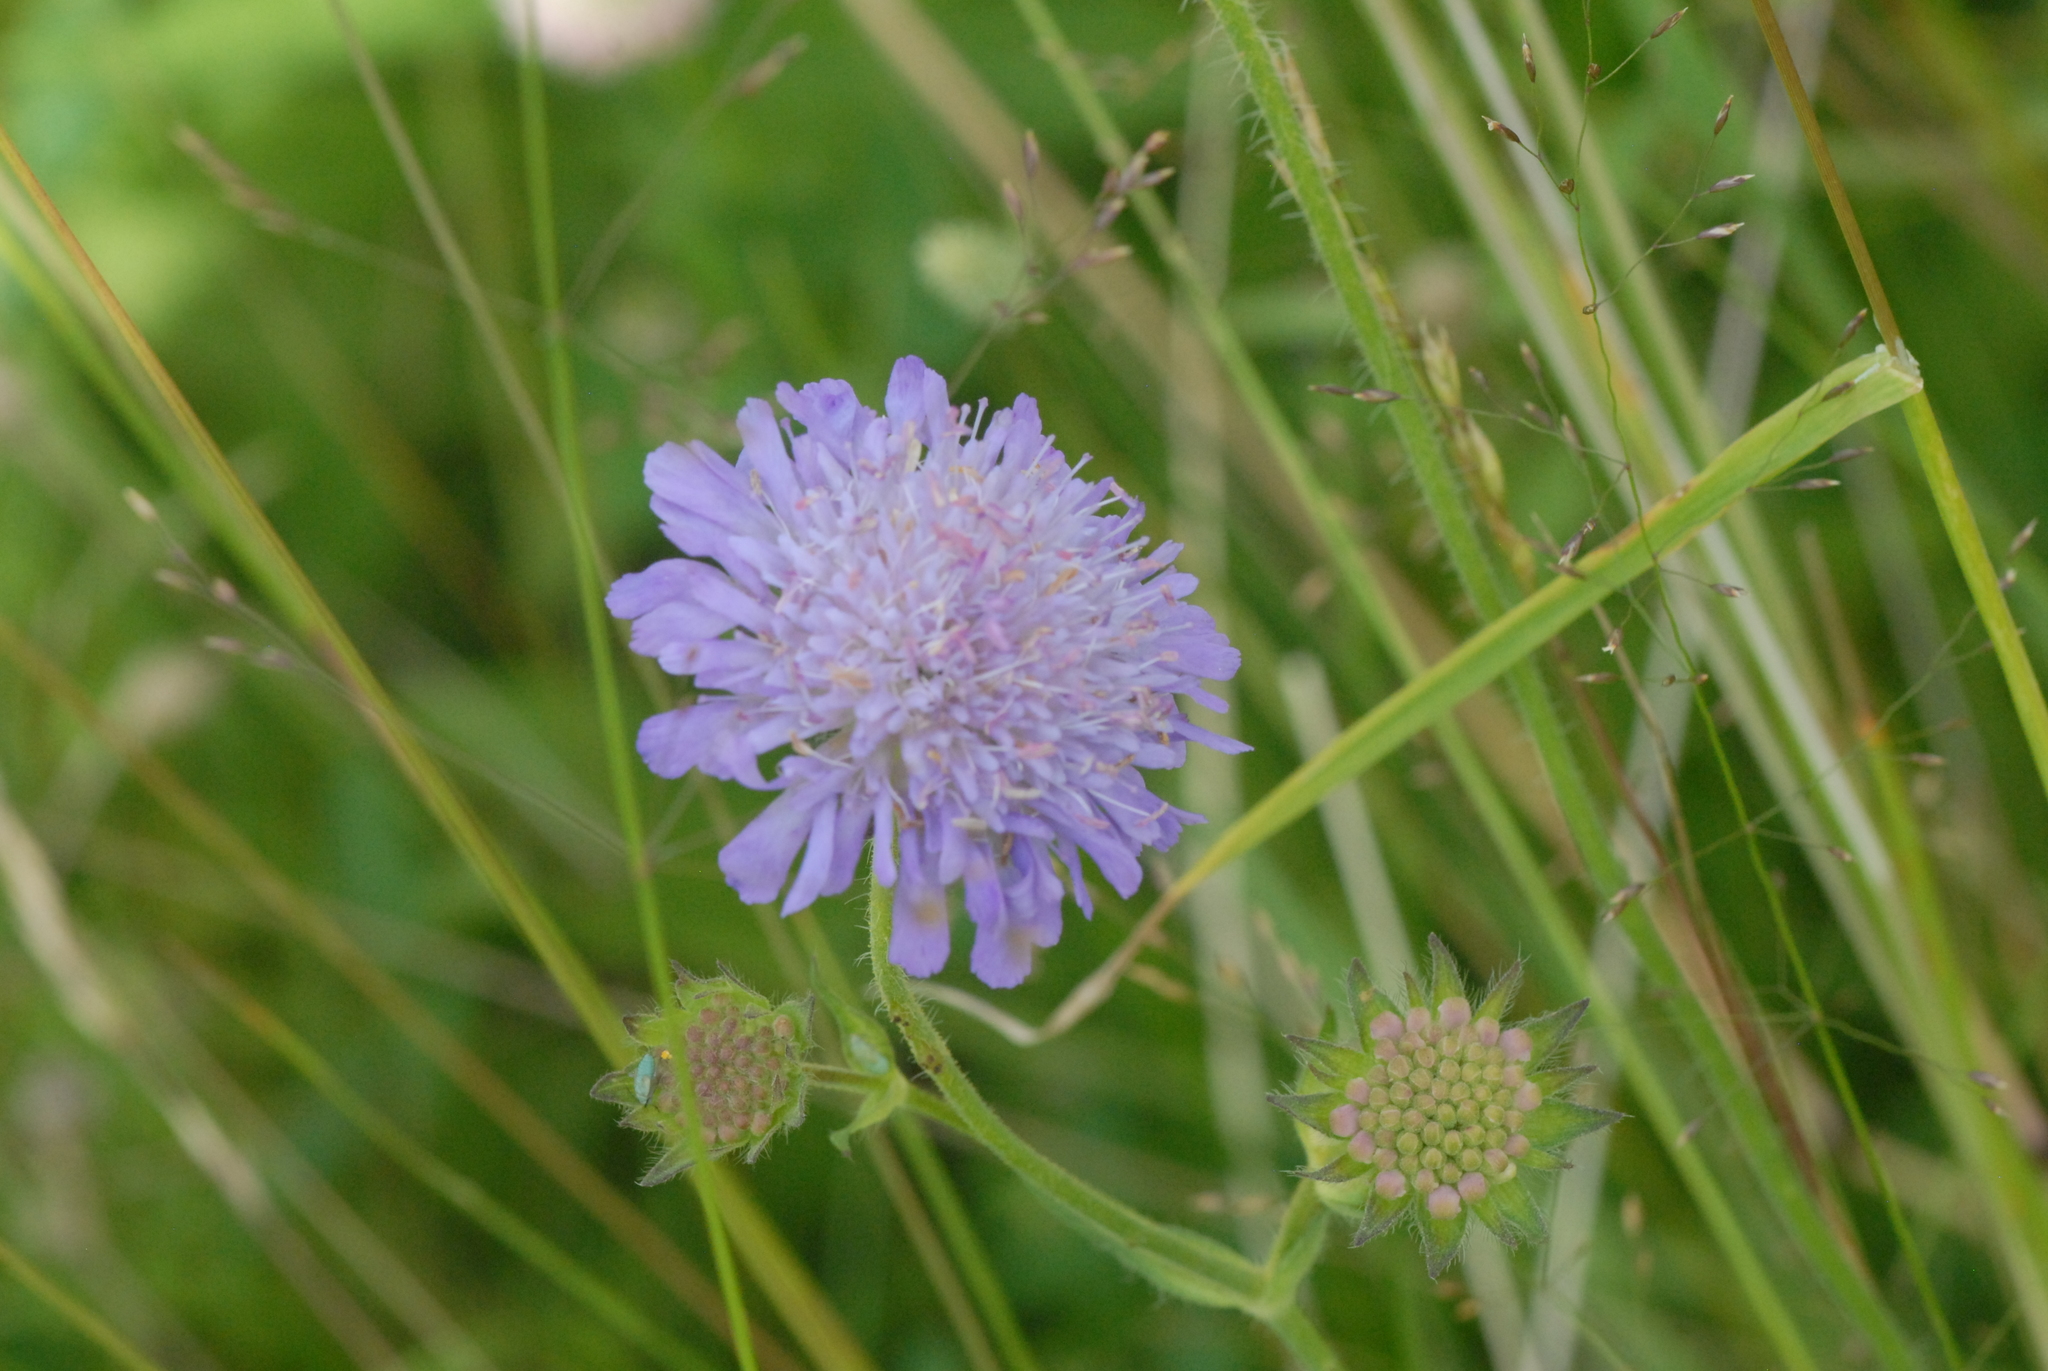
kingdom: Plantae
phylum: Tracheophyta
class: Magnoliopsida
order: Dipsacales
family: Caprifoliaceae
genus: Knautia
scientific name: Knautia arvensis
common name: Field scabiosa
